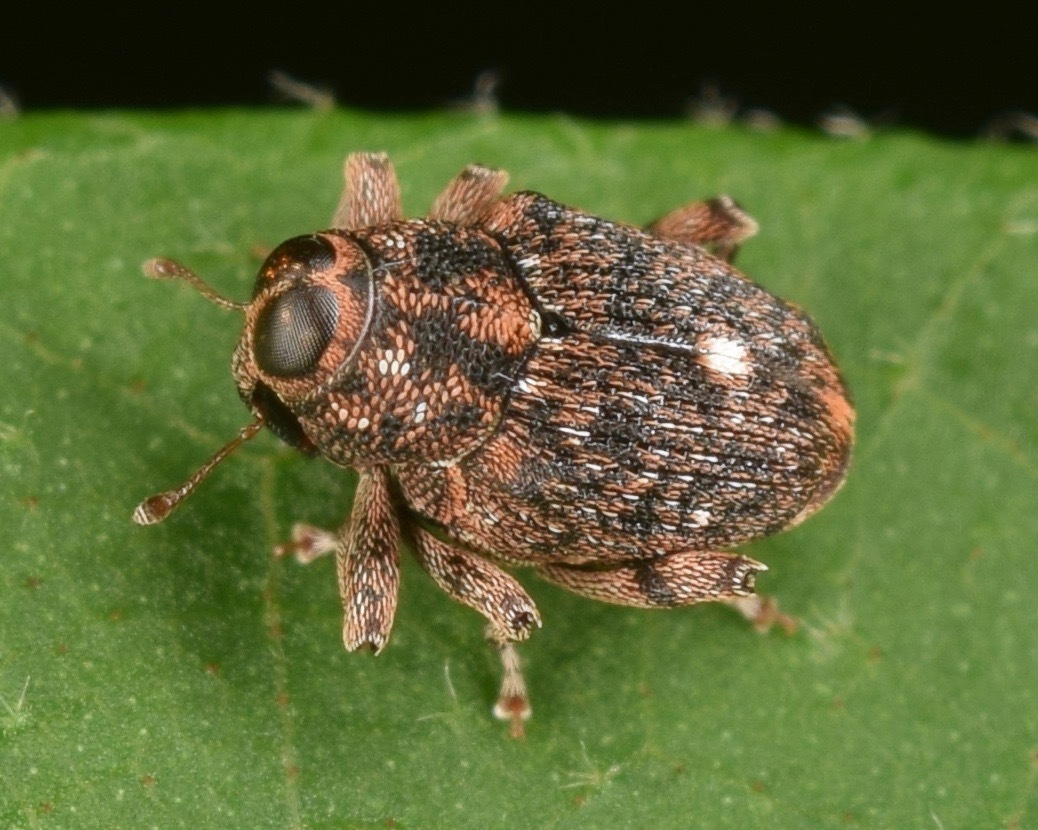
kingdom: Animalia
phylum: Arthropoda
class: Insecta
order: Coleoptera
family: Curculionidae
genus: Lechriops
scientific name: Lechriops oculatus
